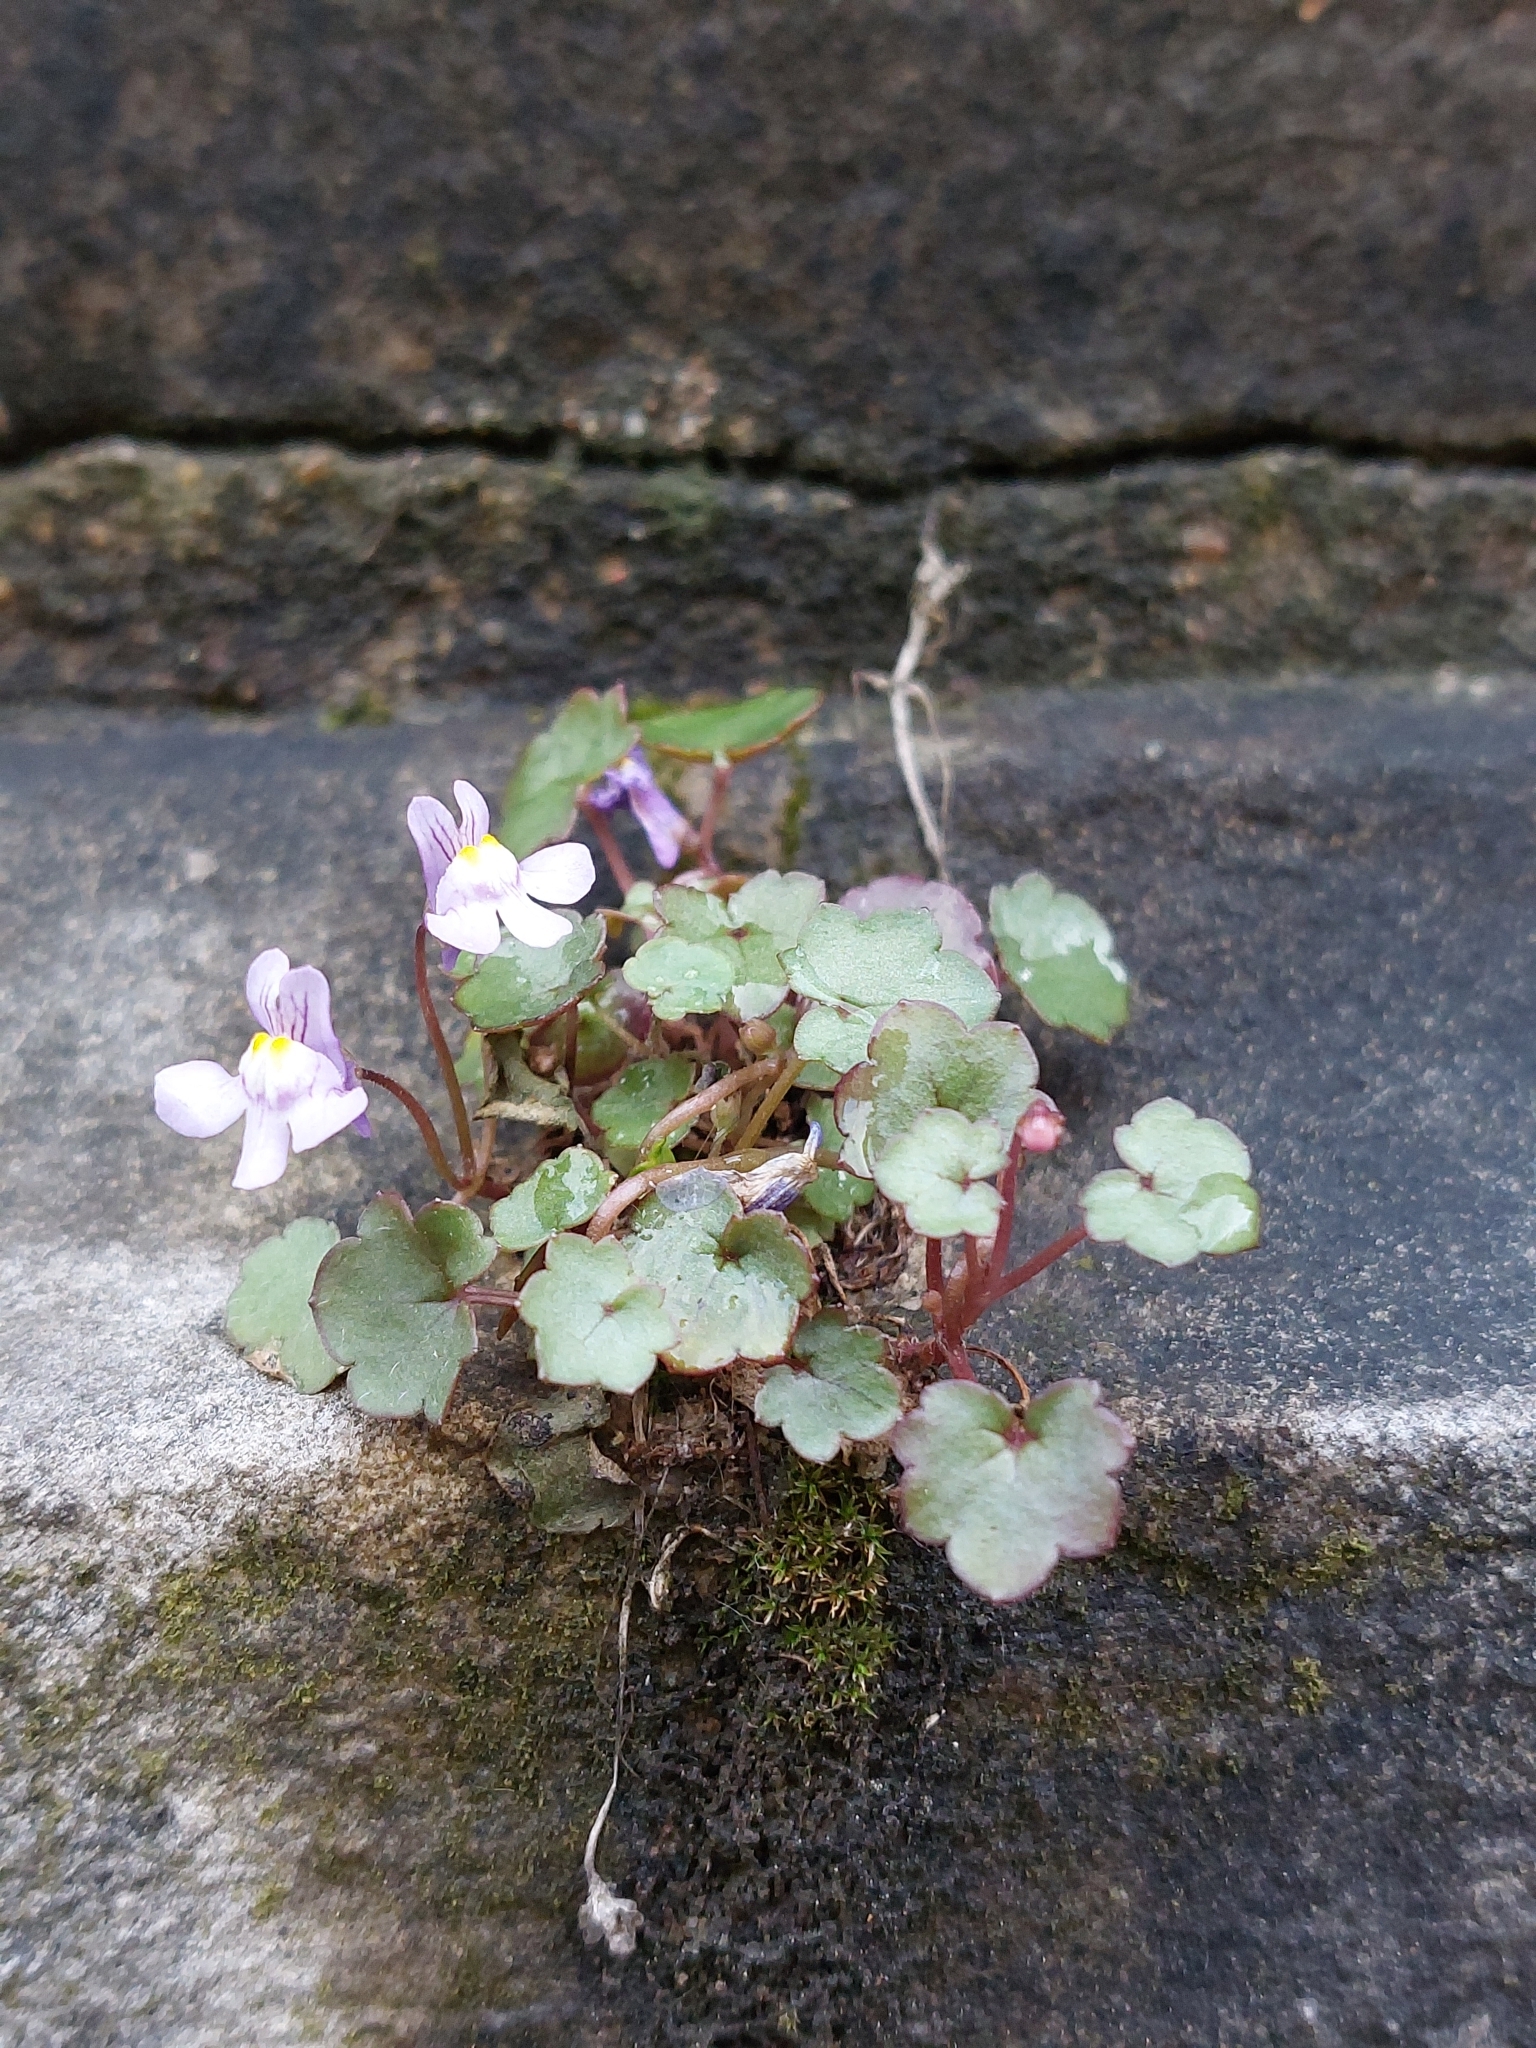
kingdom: Plantae
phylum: Tracheophyta
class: Magnoliopsida
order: Lamiales
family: Plantaginaceae
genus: Cymbalaria
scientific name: Cymbalaria muralis
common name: Ivy-leaved toadflax
